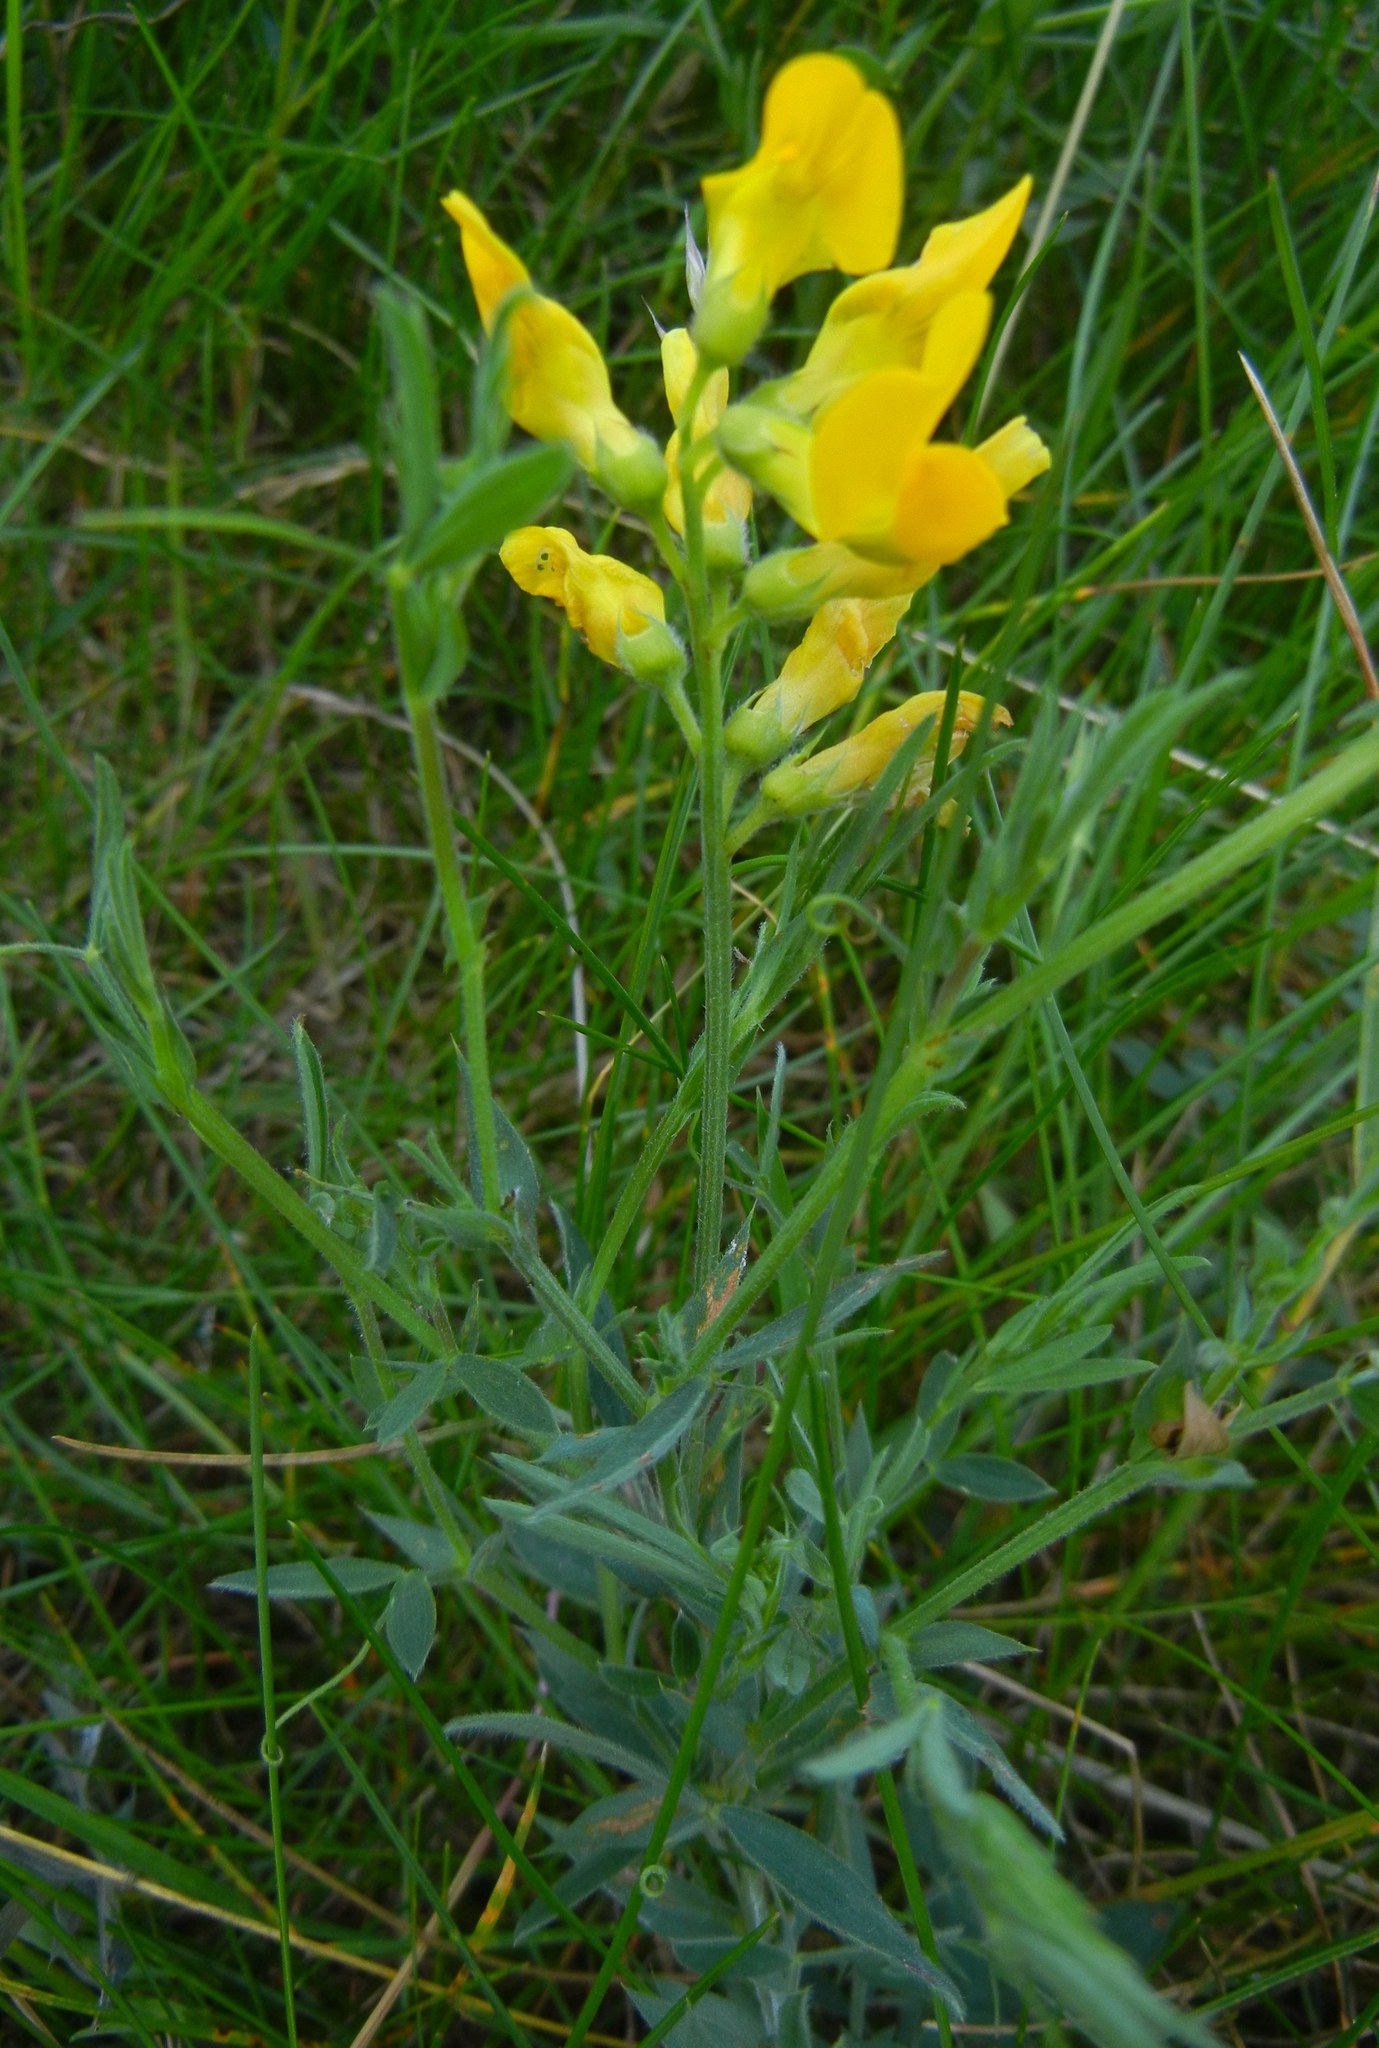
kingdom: Plantae
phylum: Tracheophyta
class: Magnoliopsida
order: Fabales
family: Fabaceae
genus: Lathyrus
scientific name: Lathyrus pratensis
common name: Meadow vetchling
